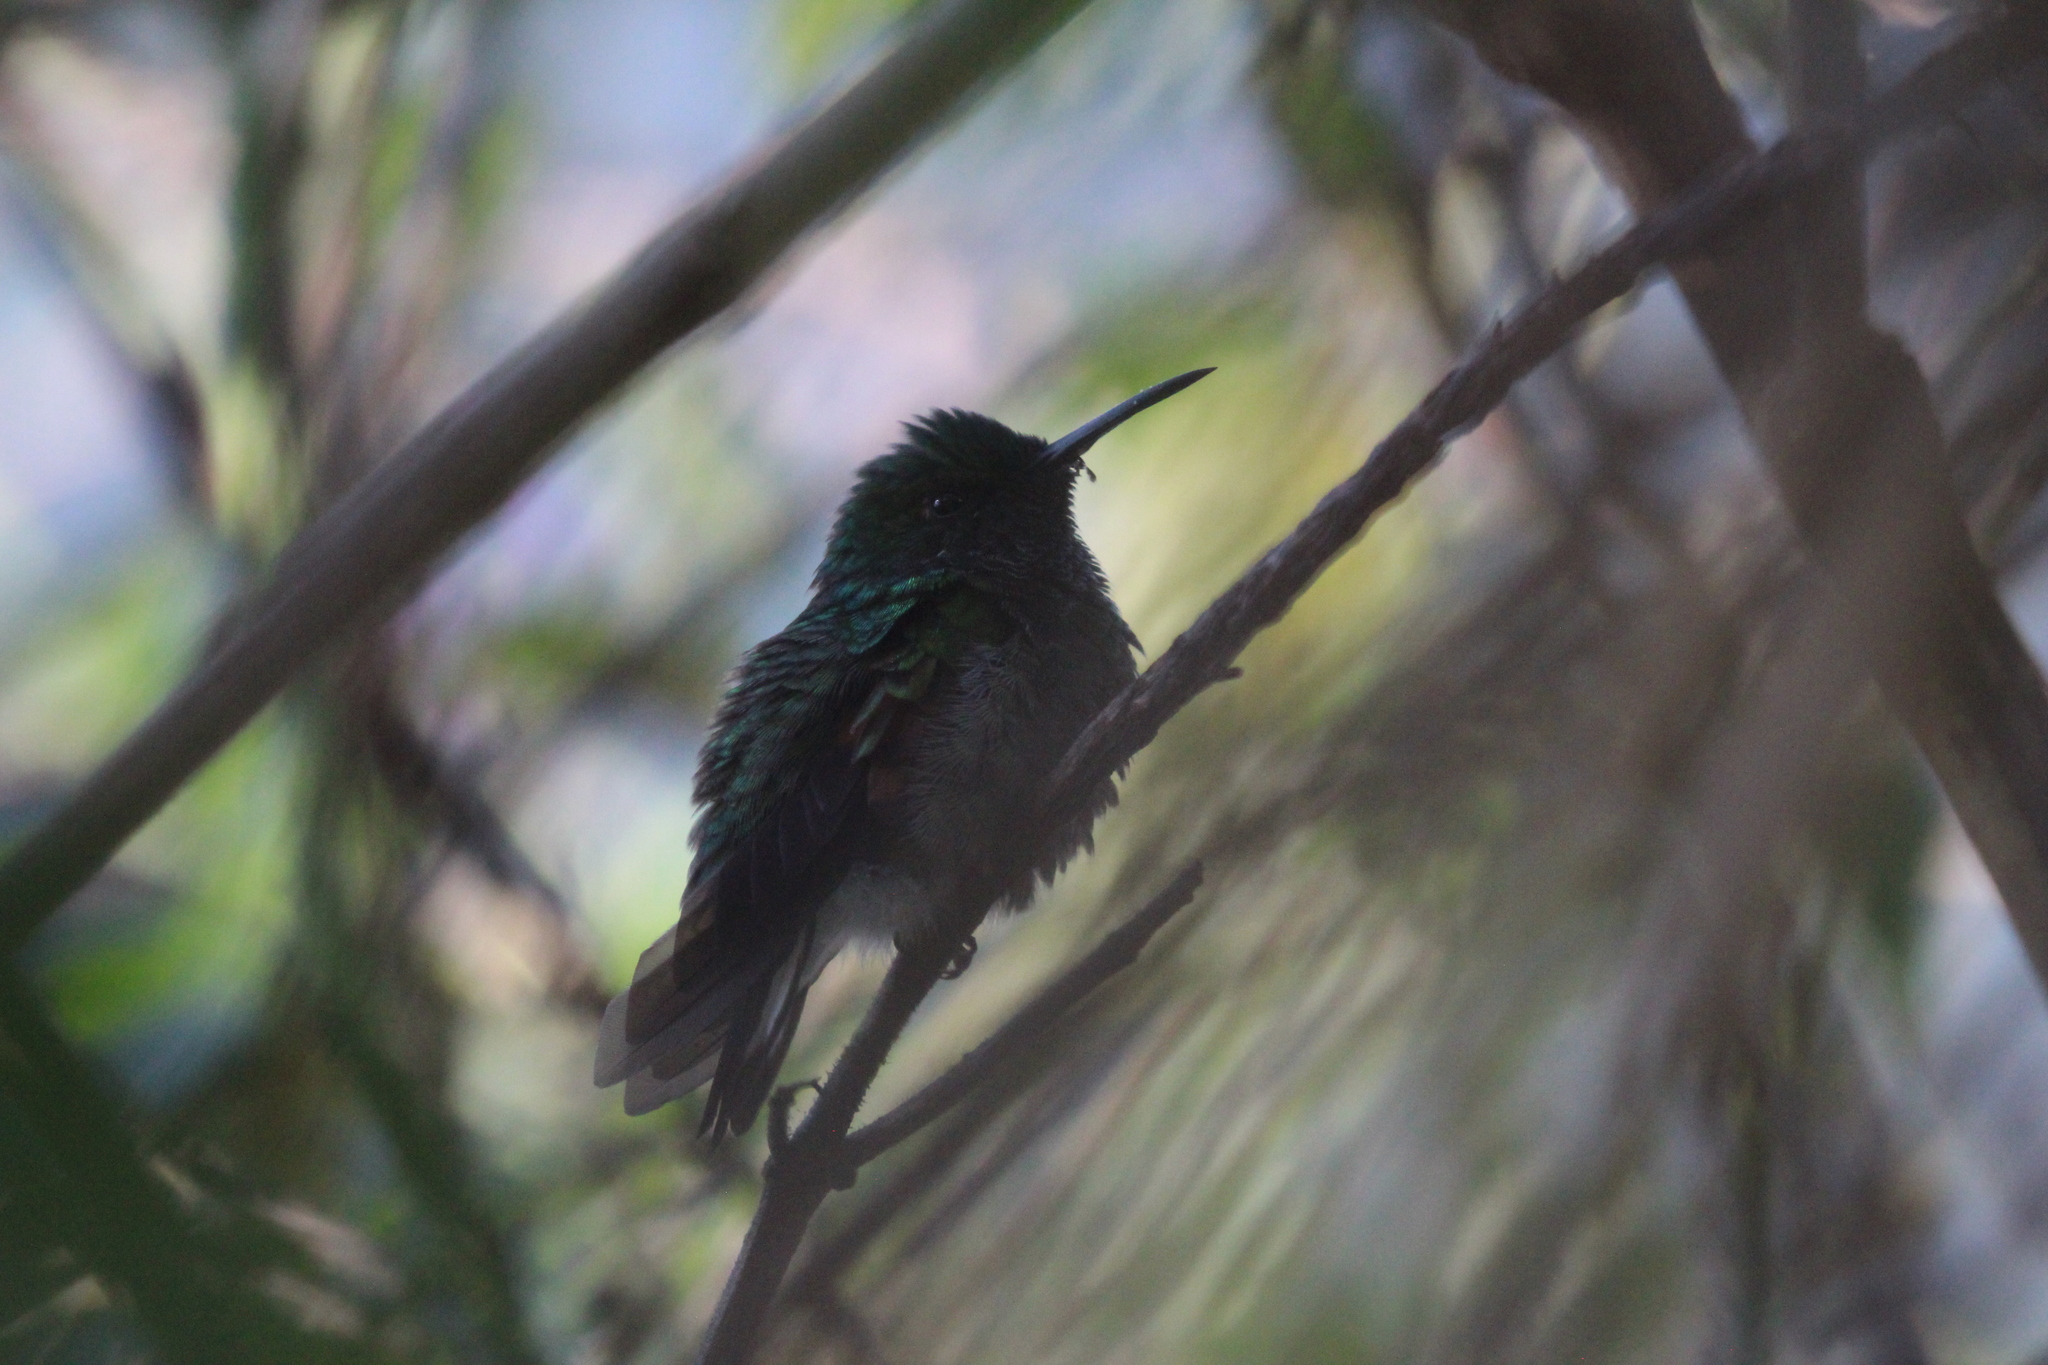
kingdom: Animalia
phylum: Chordata
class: Aves
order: Apodiformes
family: Trochilidae
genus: Eupherusa
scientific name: Eupherusa eximia
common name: Stripe-tailed hummingbird
